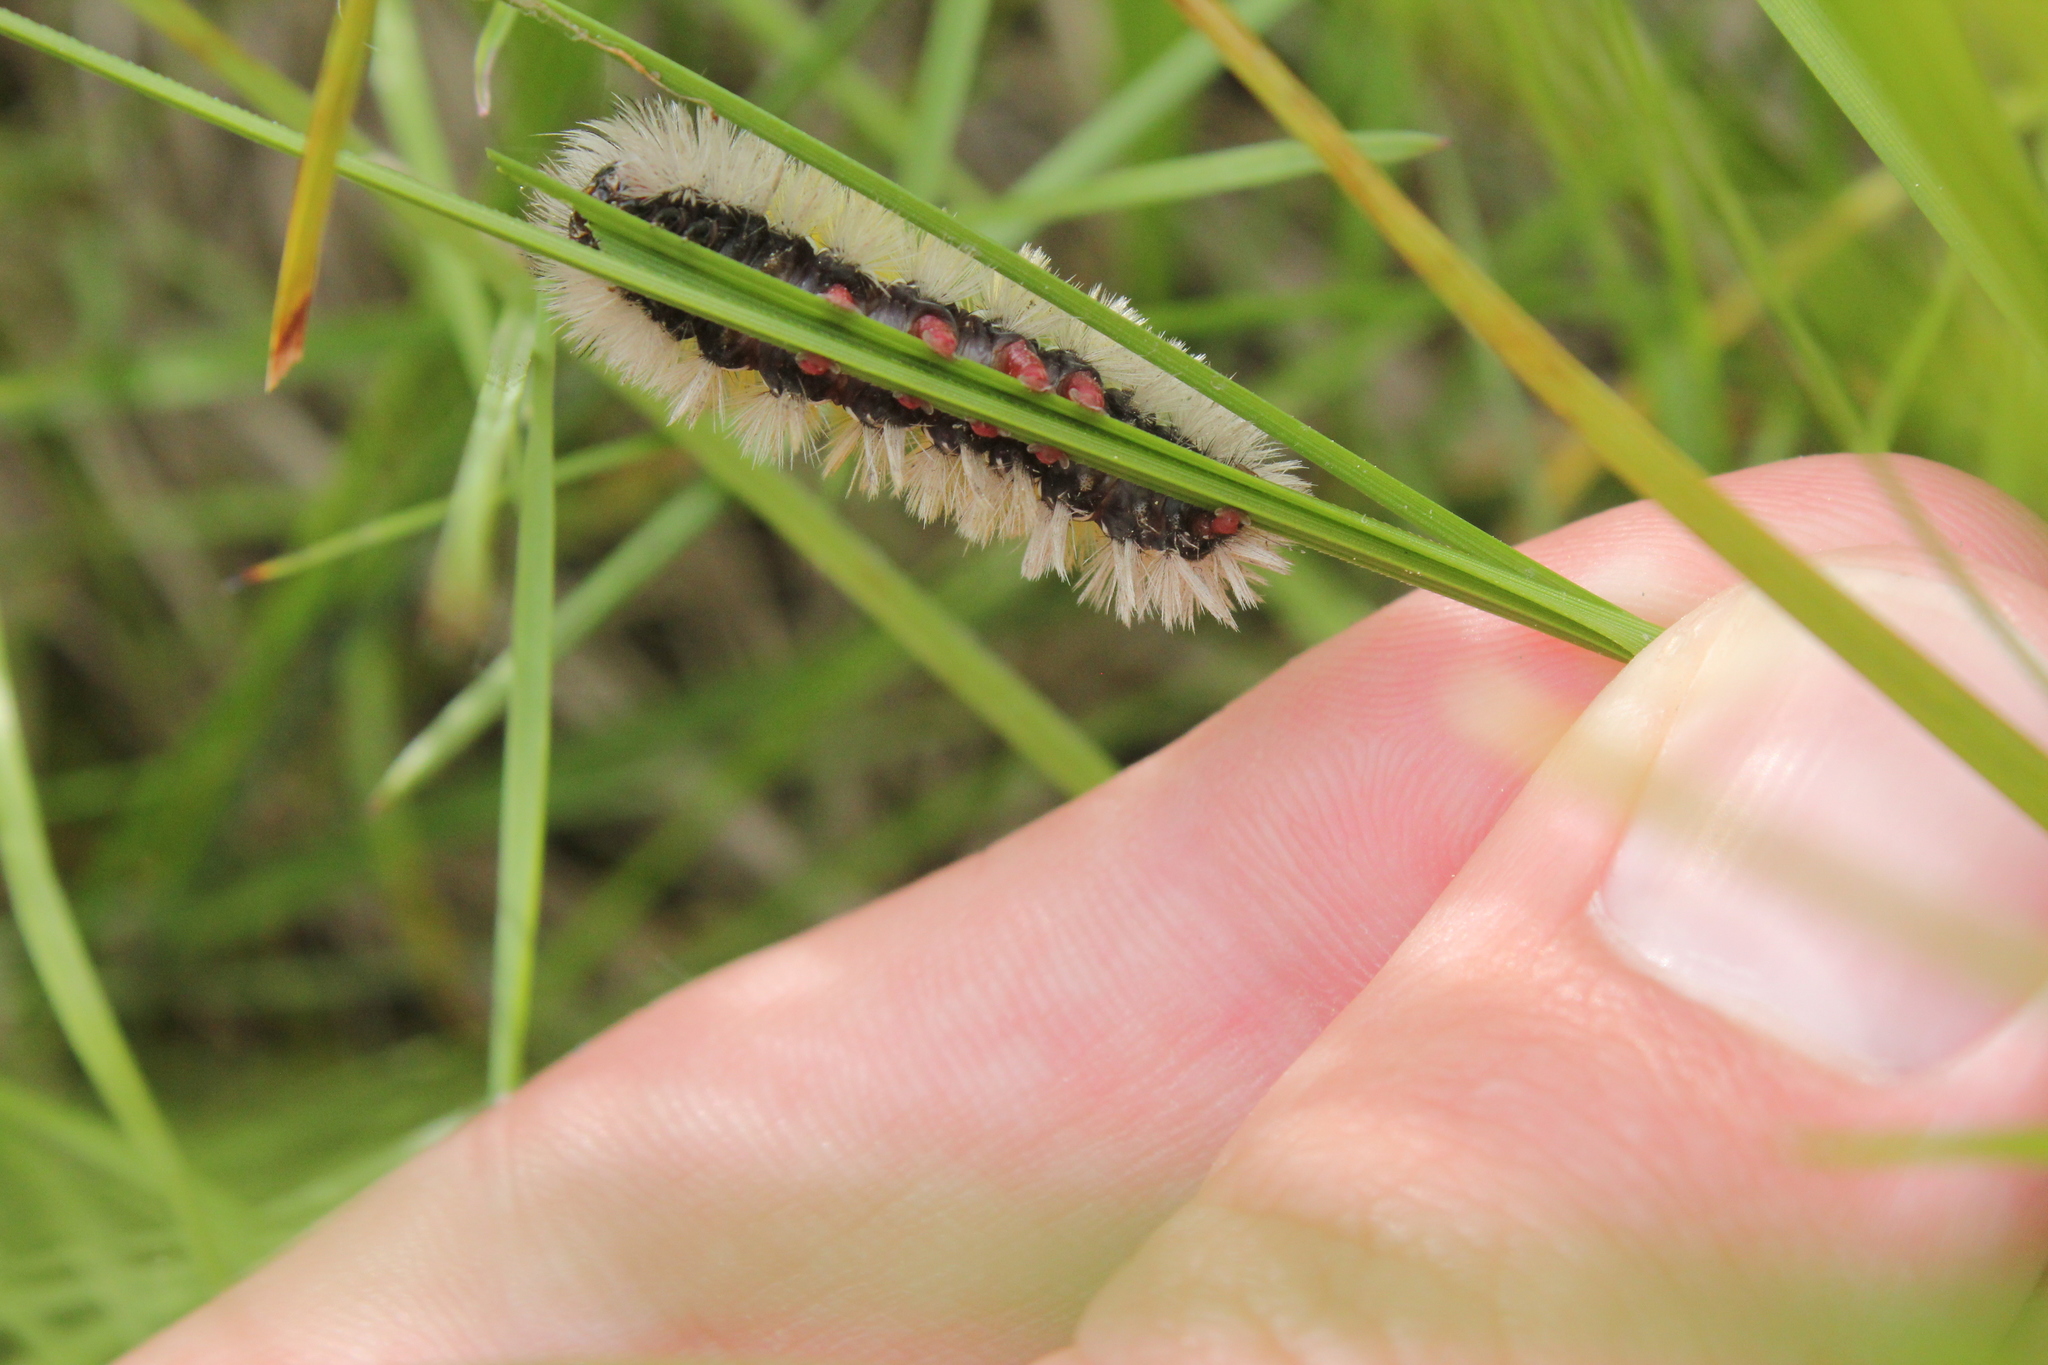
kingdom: Animalia
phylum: Arthropoda
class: Insecta
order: Lepidoptera
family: Erebidae
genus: Ctenucha
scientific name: Ctenucha virginica
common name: Virginia ctenucha moth
